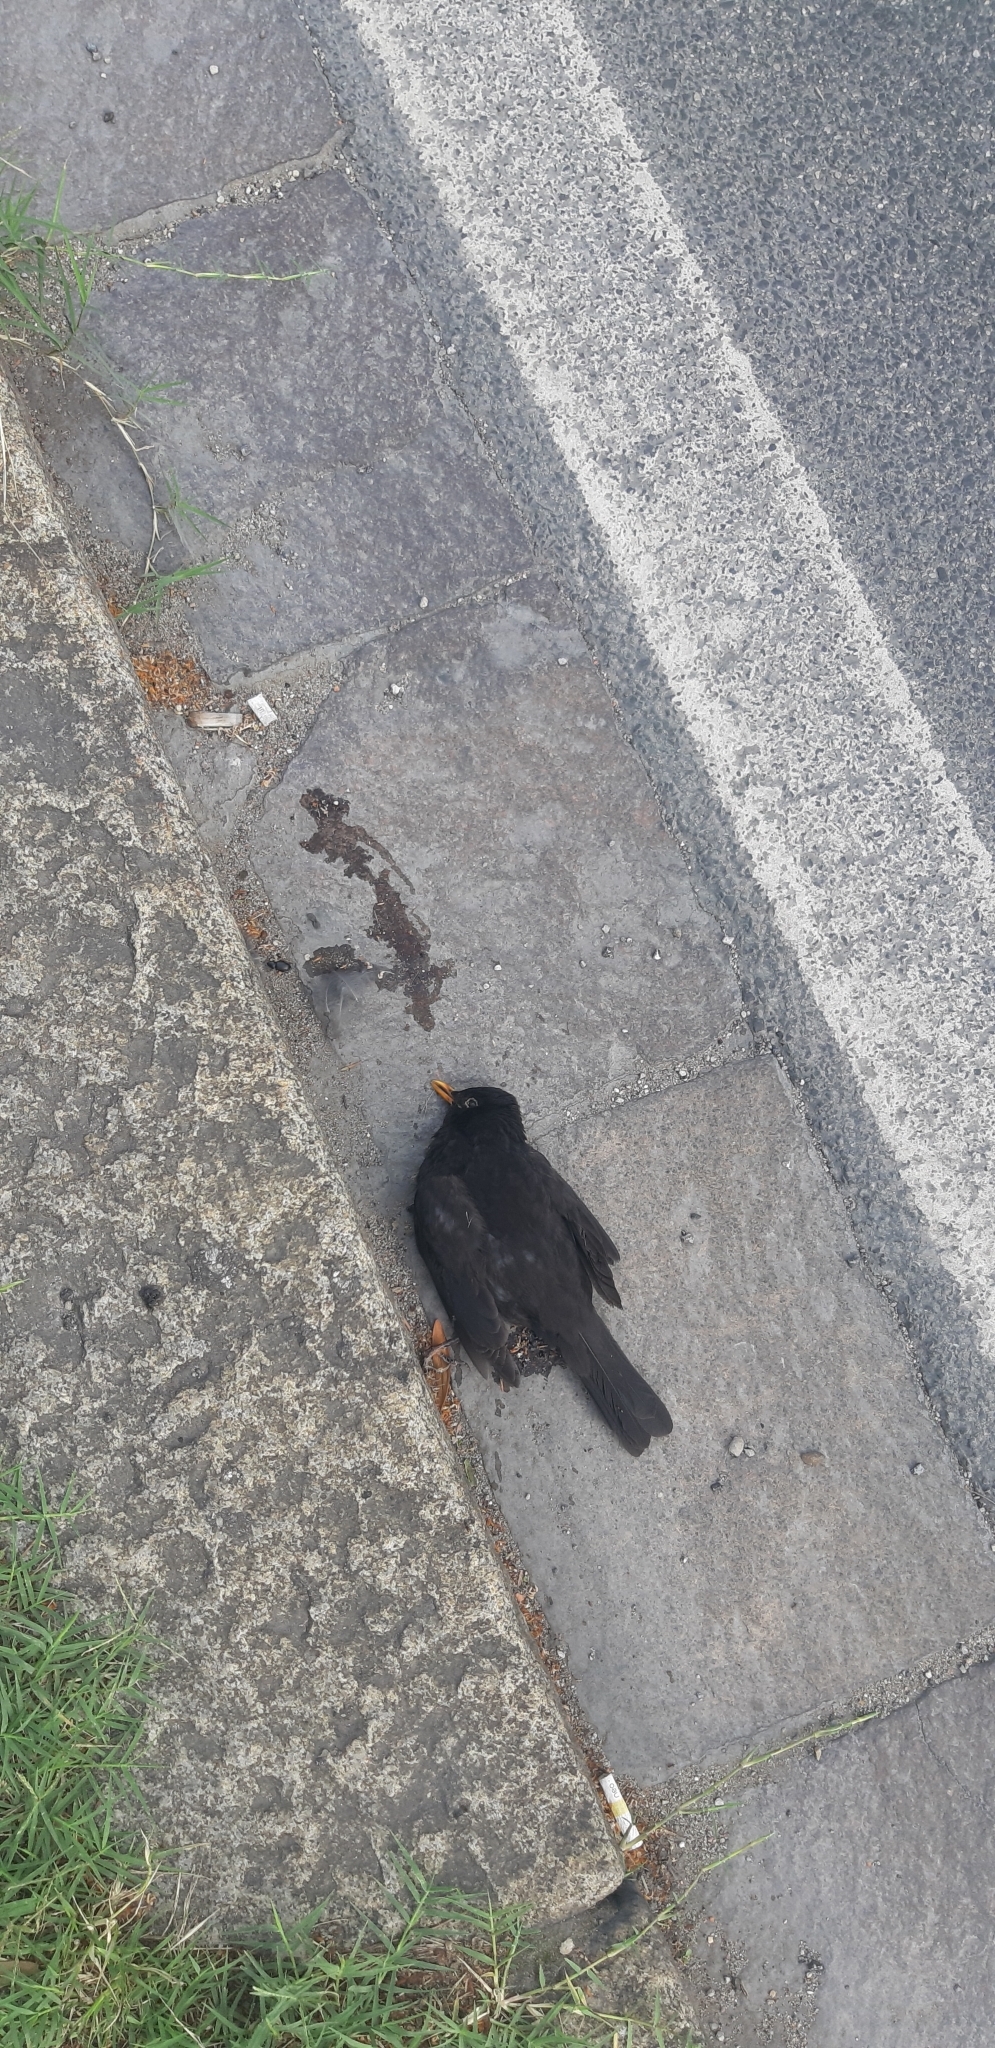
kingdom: Animalia
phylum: Chordata
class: Aves
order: Passeriformes
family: Turdidae
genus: Turdus
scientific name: Turdus merula
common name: Common blackbird
